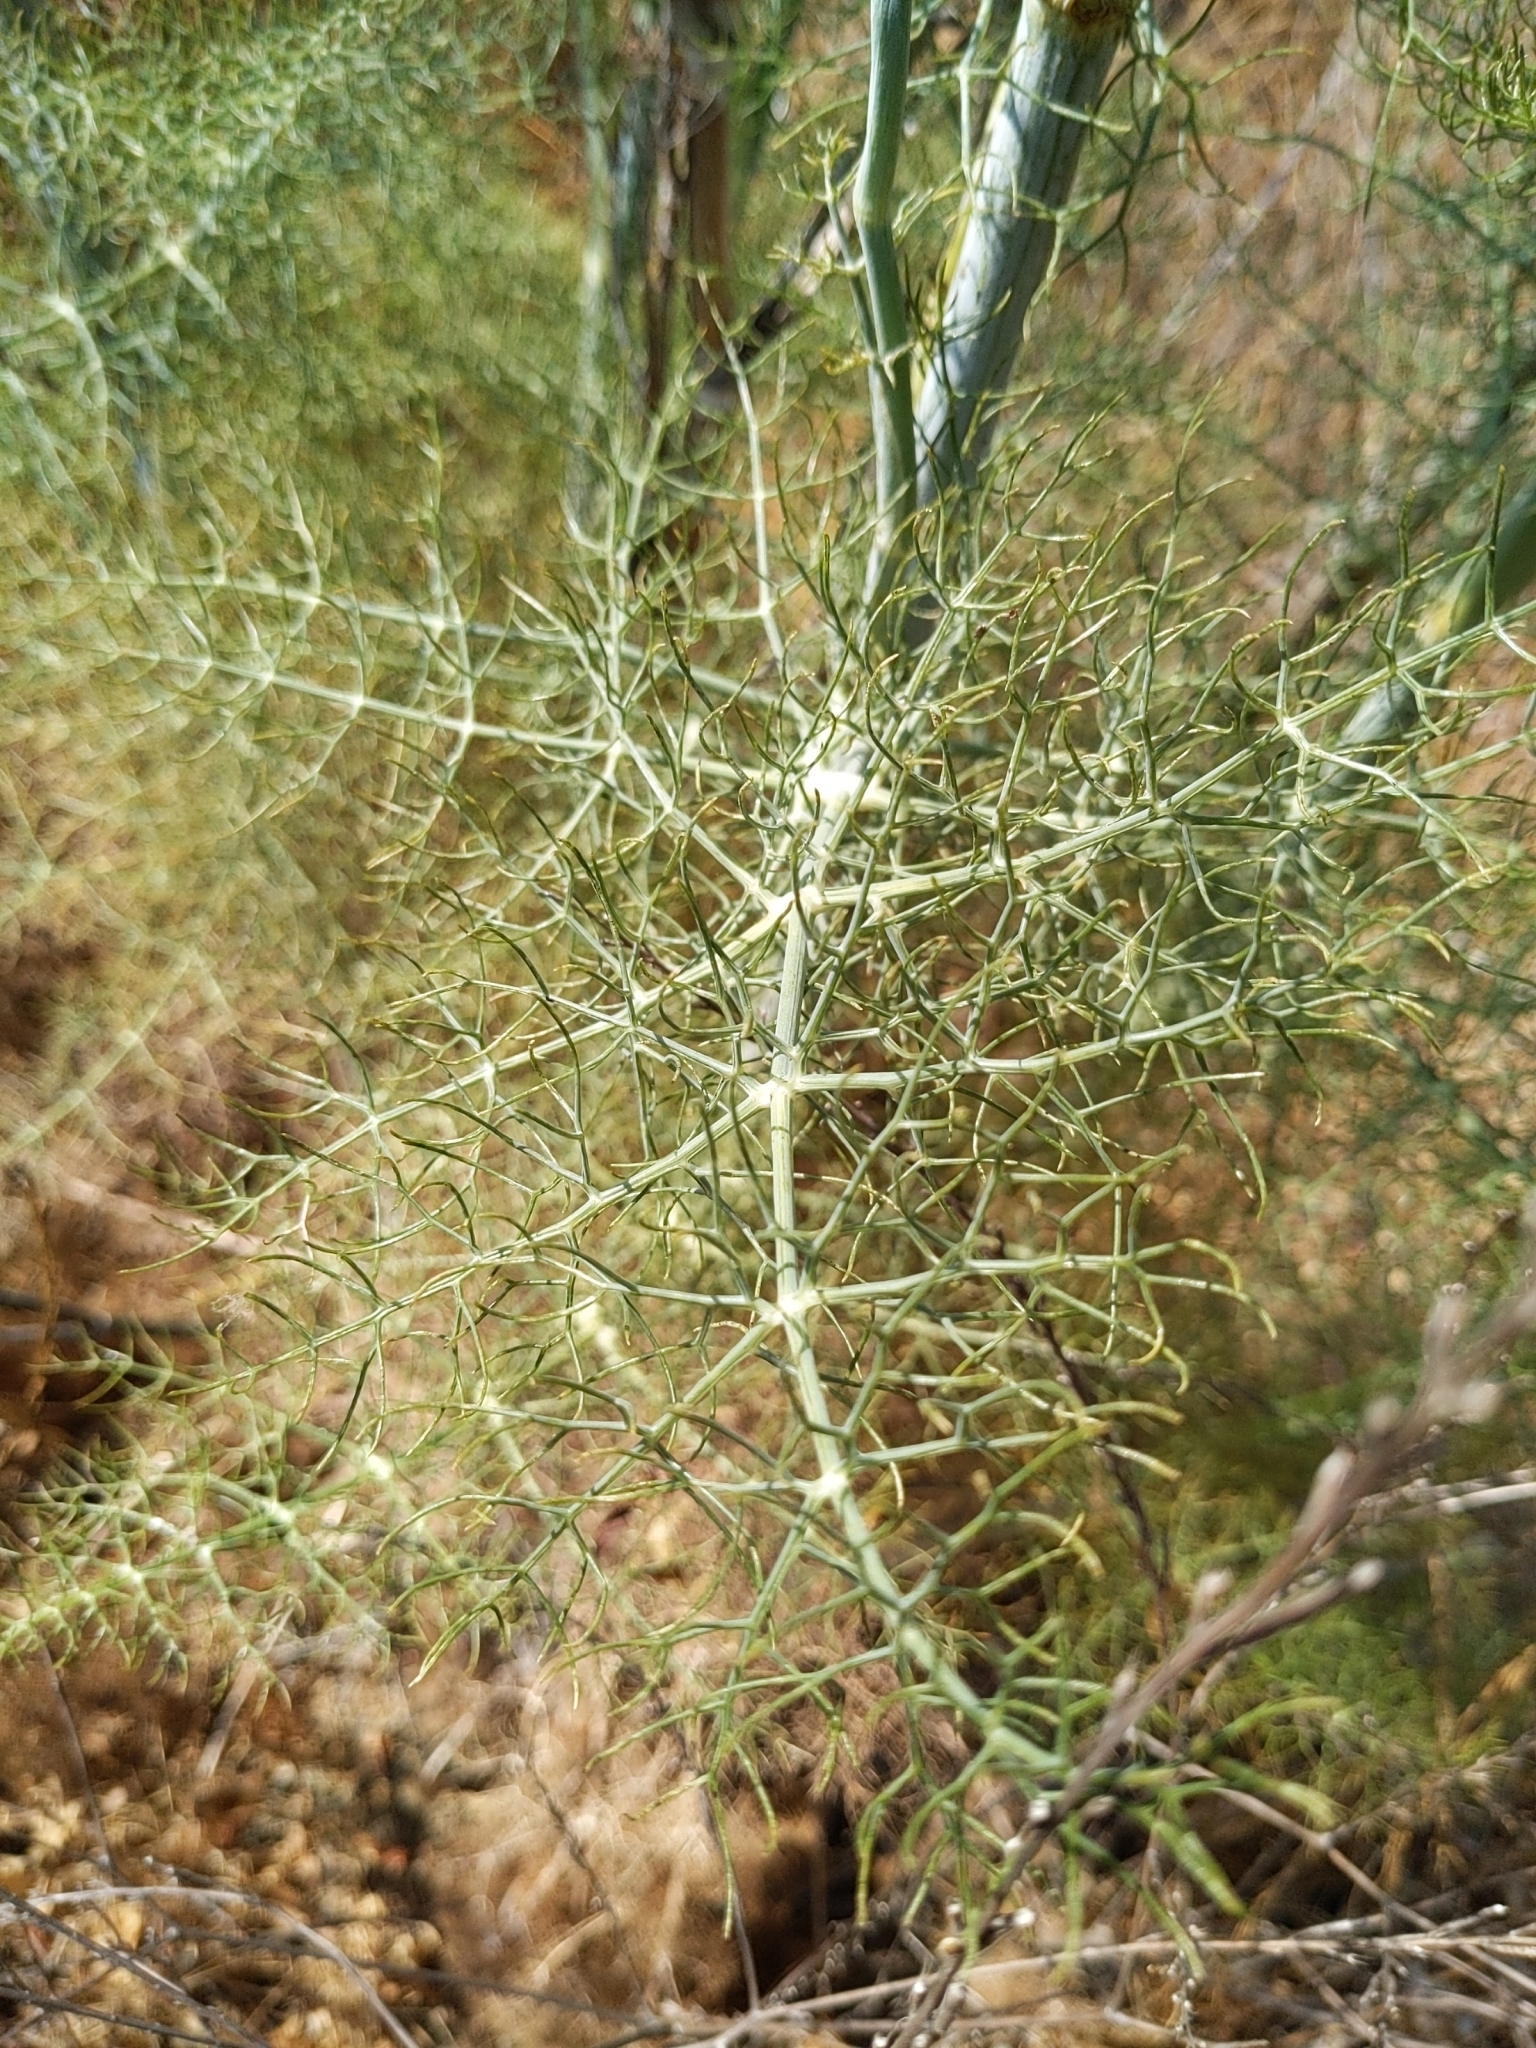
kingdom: Plantae
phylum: Tracheophyta
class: Magnoliopsida
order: Apiales
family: Apiaceae
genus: Foeniculum
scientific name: Foeniculum vulgare
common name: Fennel
